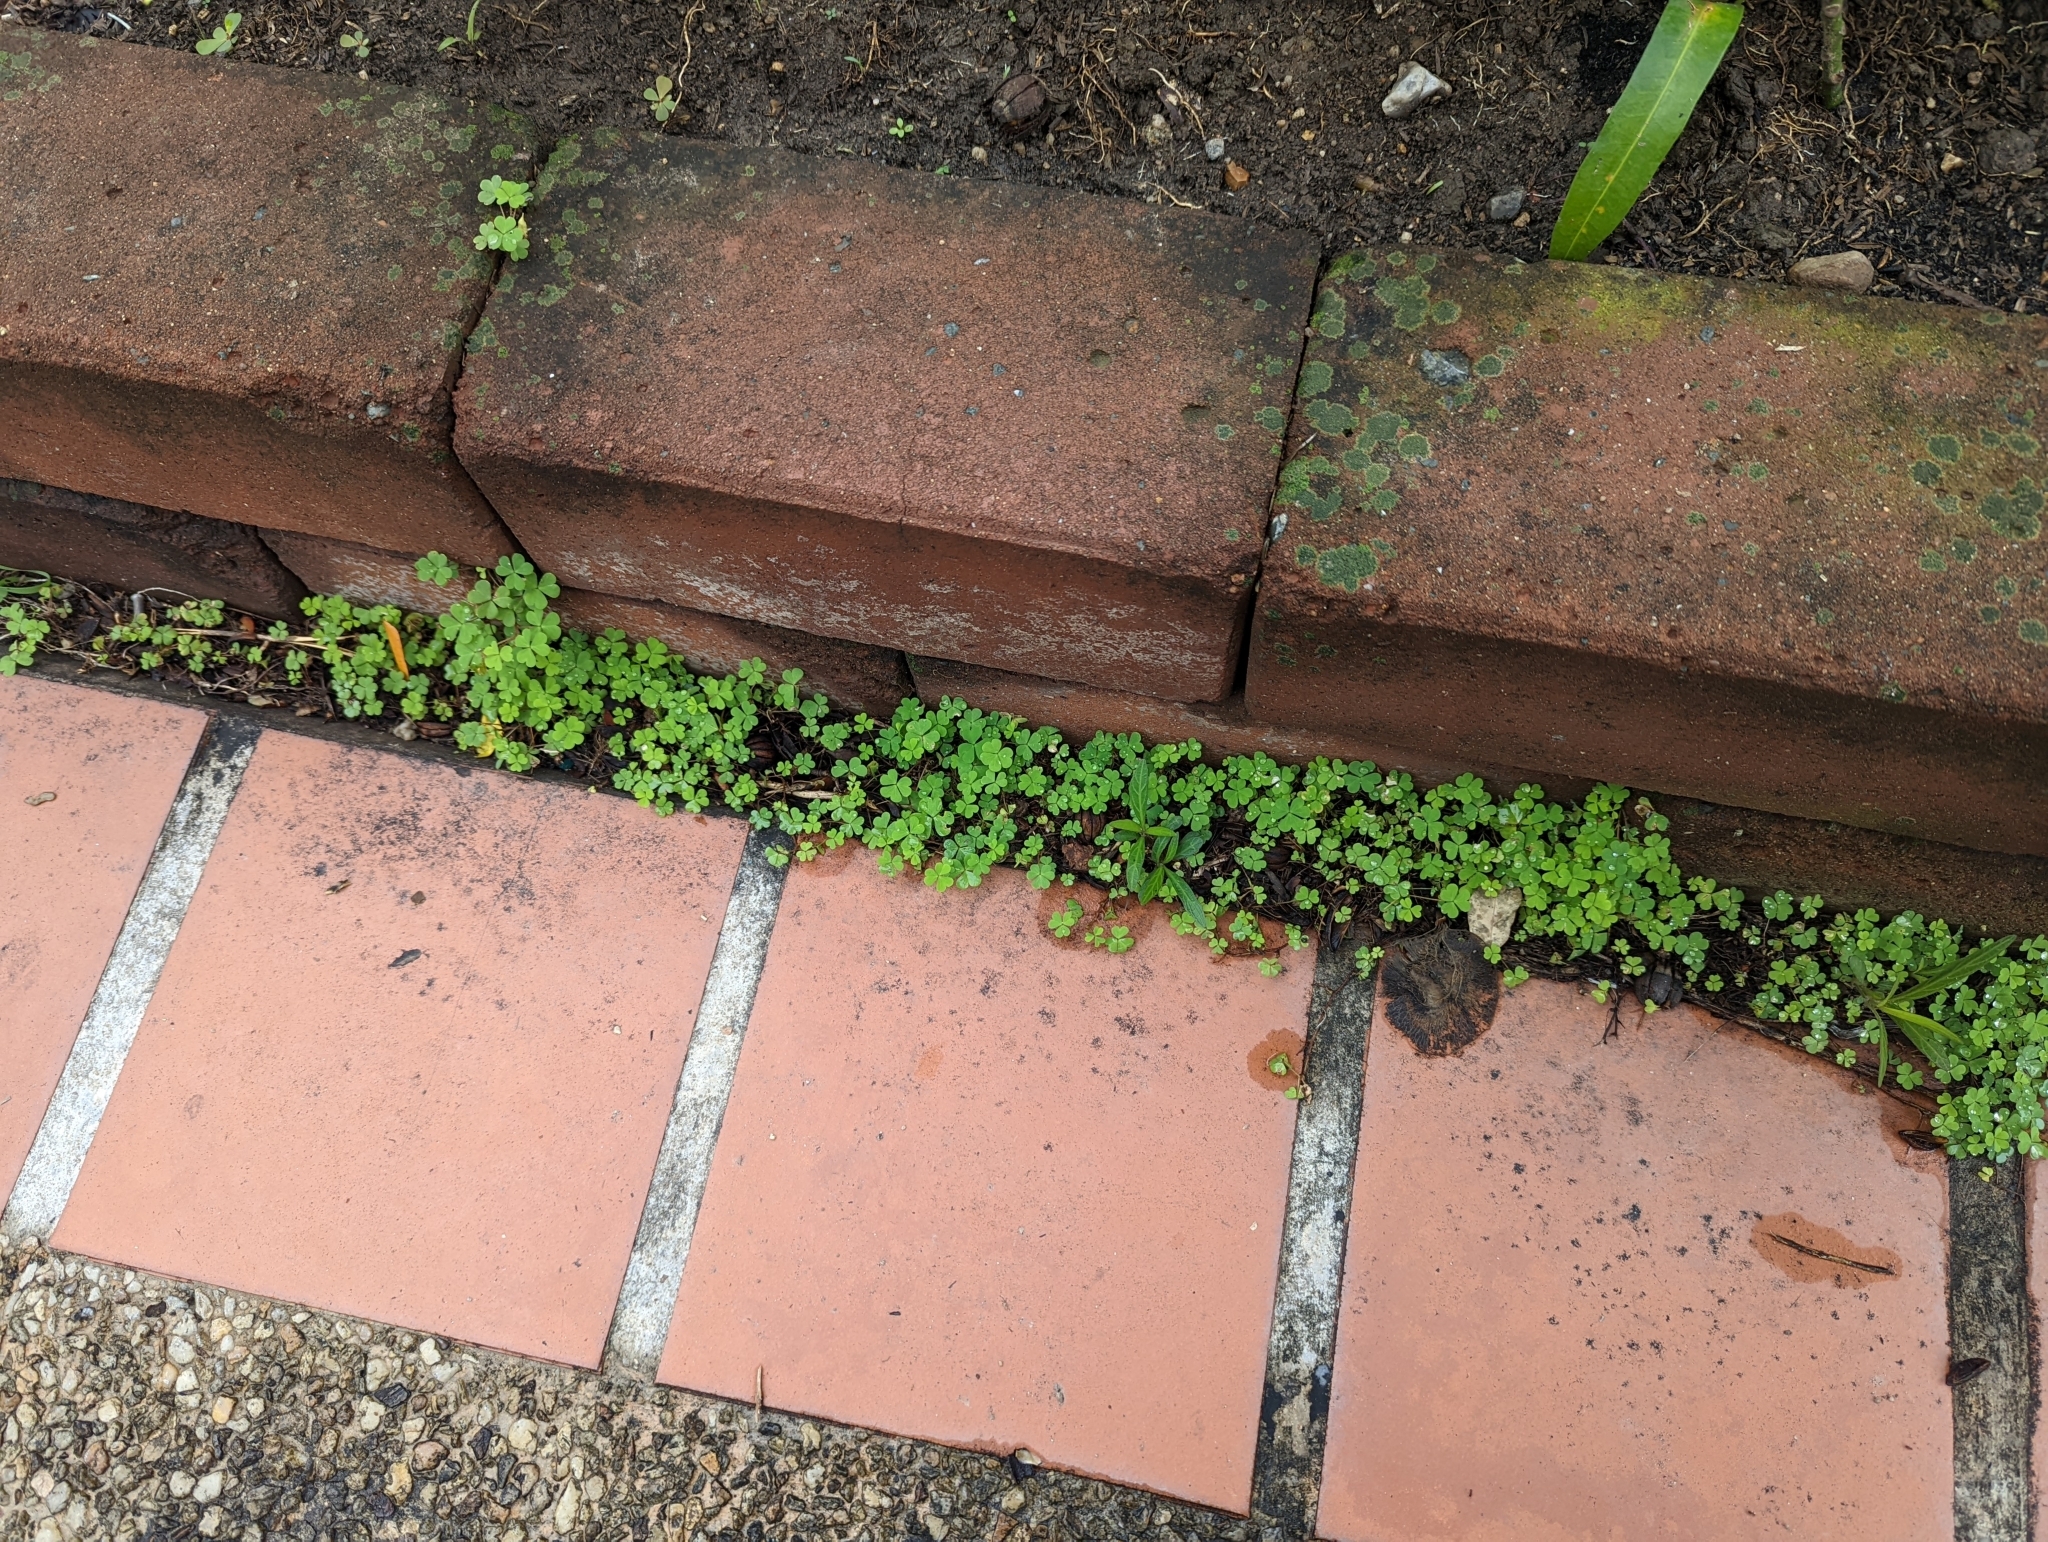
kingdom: Plantae
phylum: Tracheophyta
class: Magnoliopsida
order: Oxalidales
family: Oxalidaceae
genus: Oxalis
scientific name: Oxalis corniculata
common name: Procumbent yellow-sorrel
